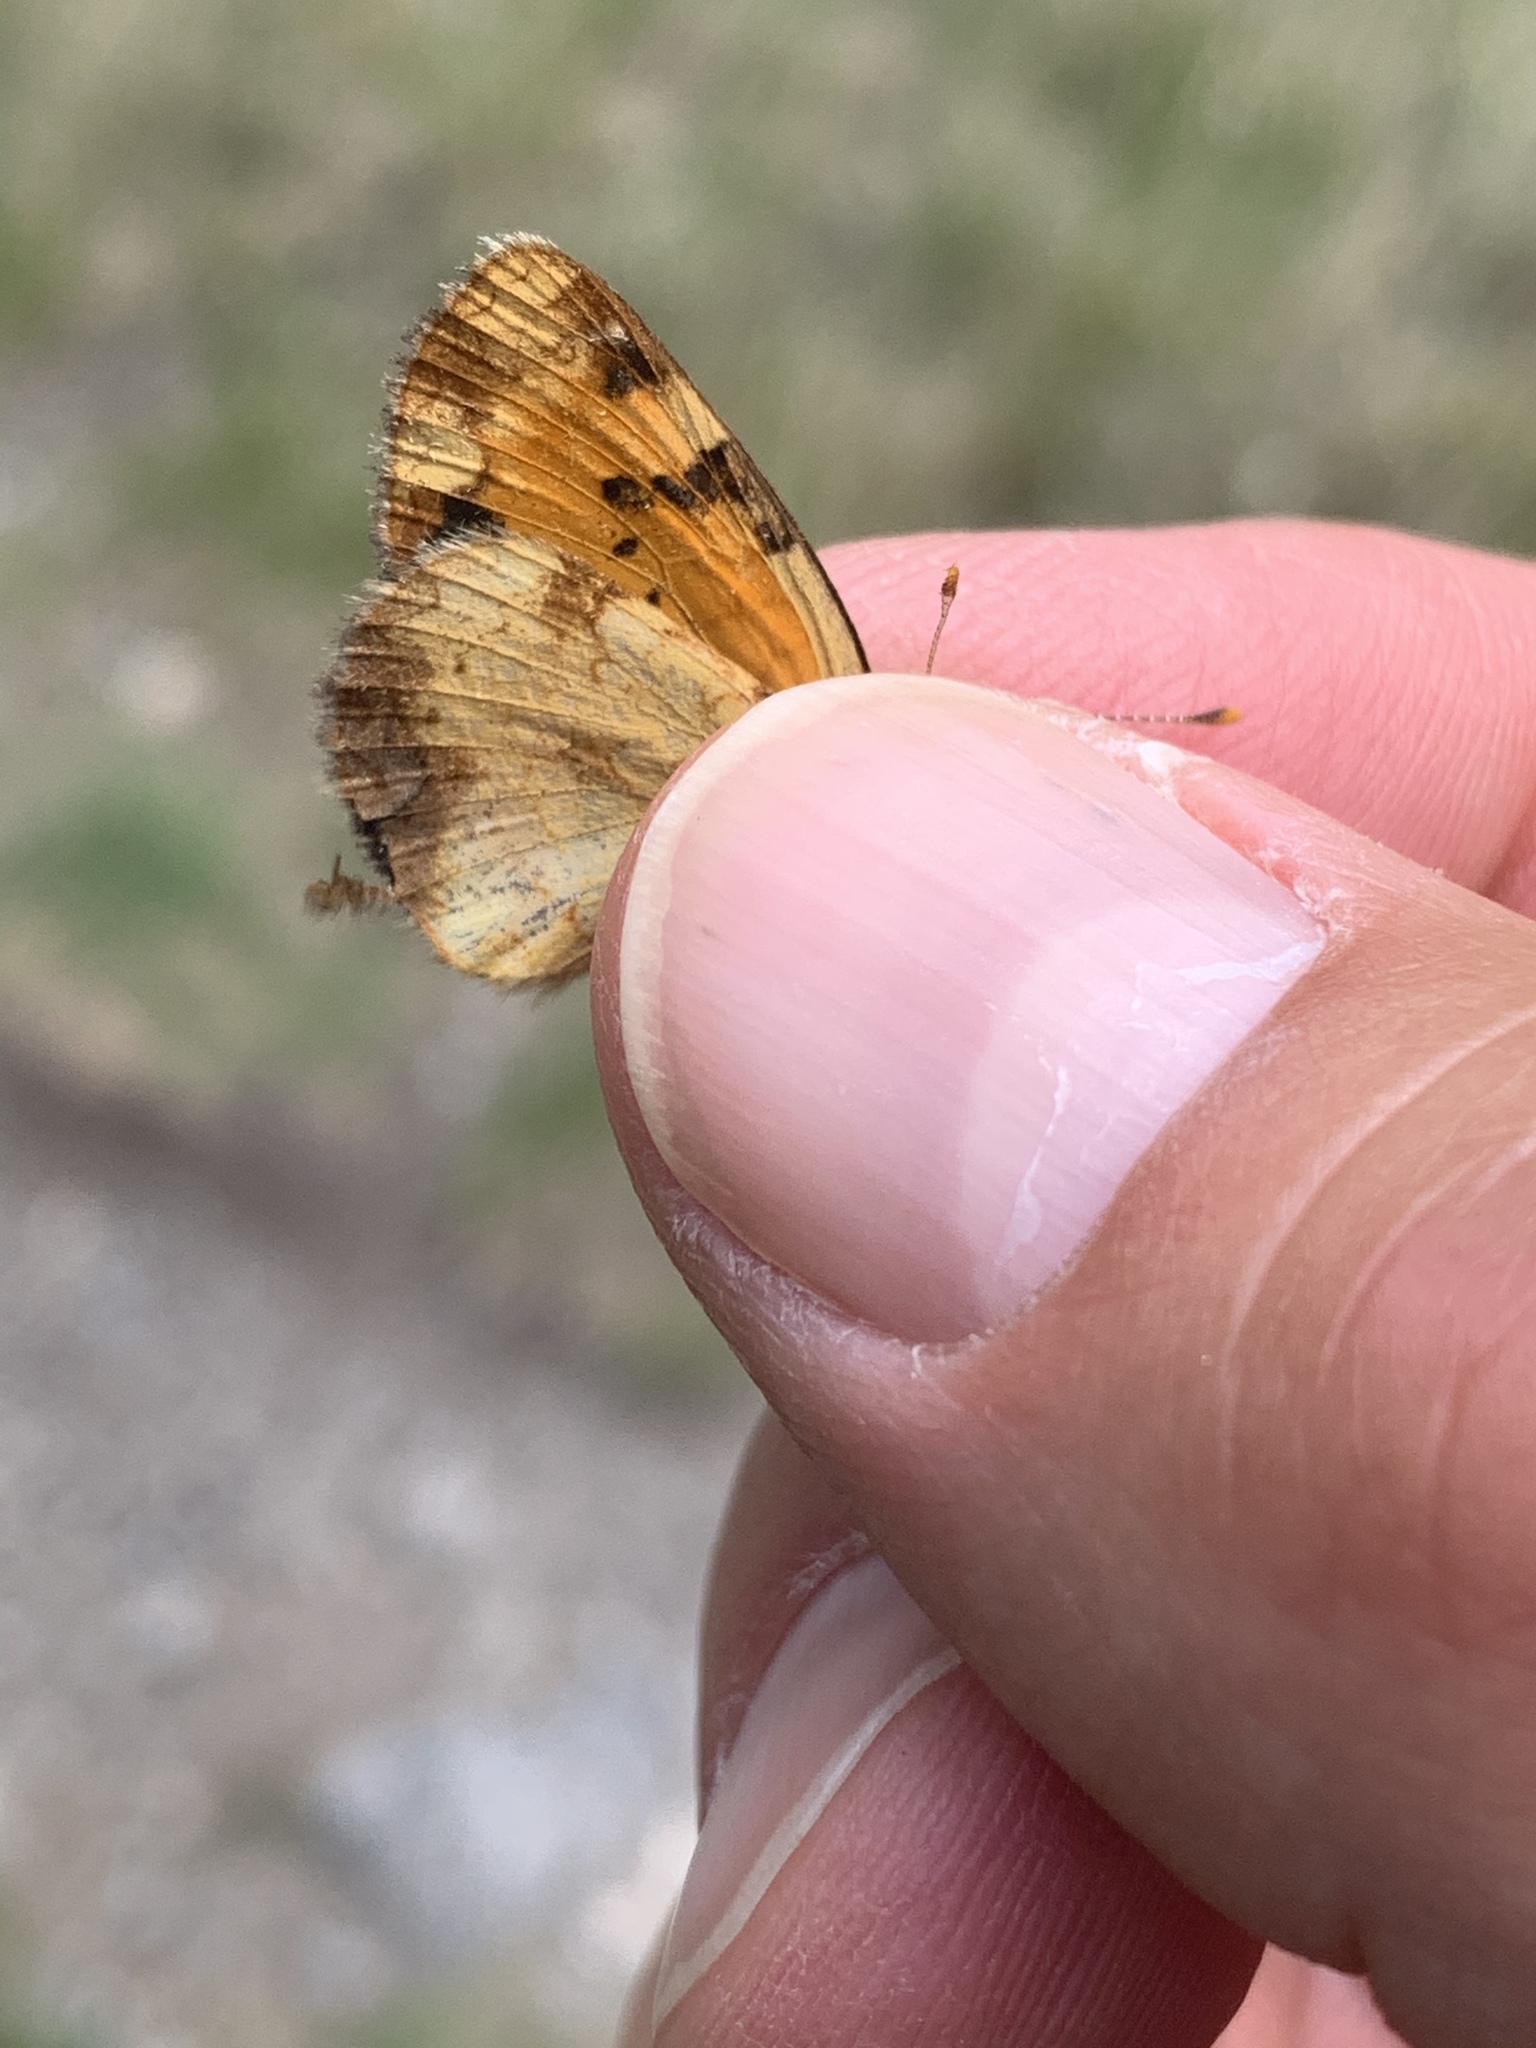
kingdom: Animalia
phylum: Arthropoda
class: Insecta
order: Lepidoptera
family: Nymphalidae
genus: Phyciodes
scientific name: Phyciodes tharos
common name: Pearl crescent
